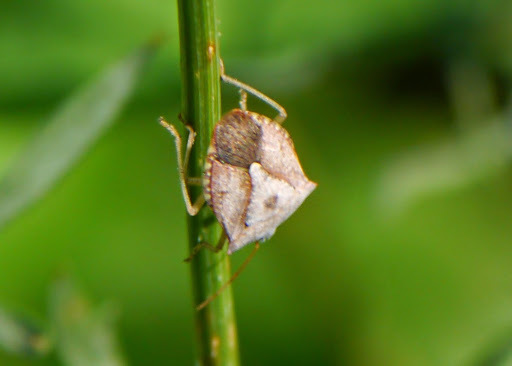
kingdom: Animalia
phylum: Arthropoda
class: Insecta
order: Hemiptera
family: Pentatomidae
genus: Euschistus
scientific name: Euschistus
